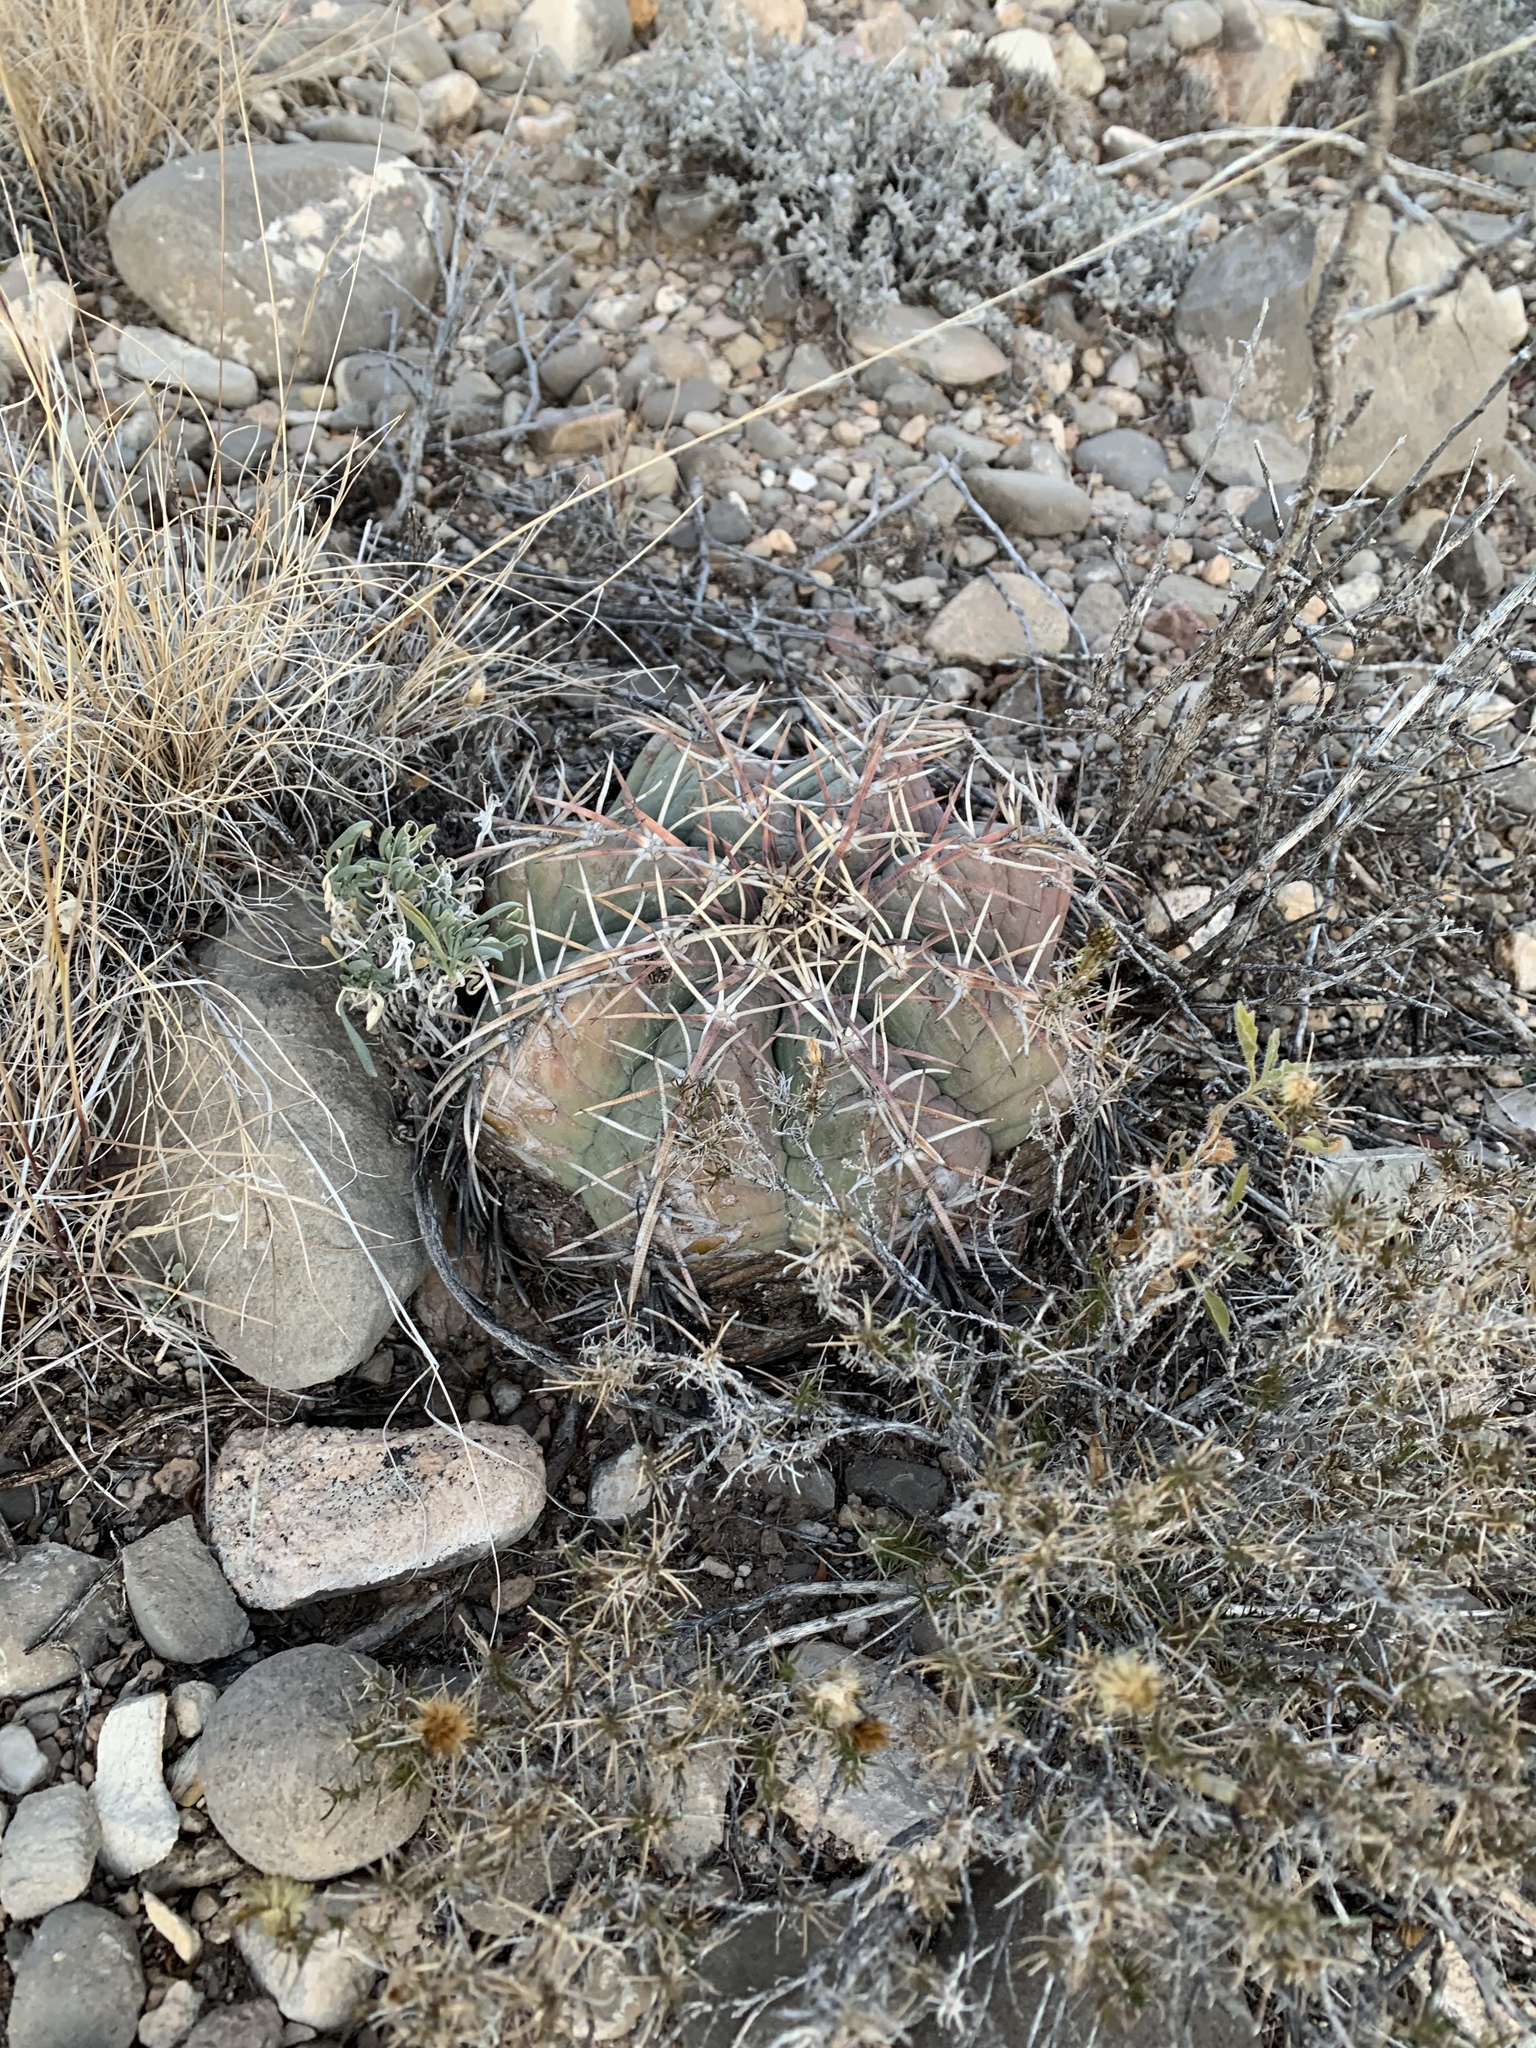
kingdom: Plantae
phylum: Tracheophyta
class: Magnoliopsida
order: Caryophyllales
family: Cactaceae
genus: Echinocactus
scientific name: Echinocactus horizonthalonius
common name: Devilshead
